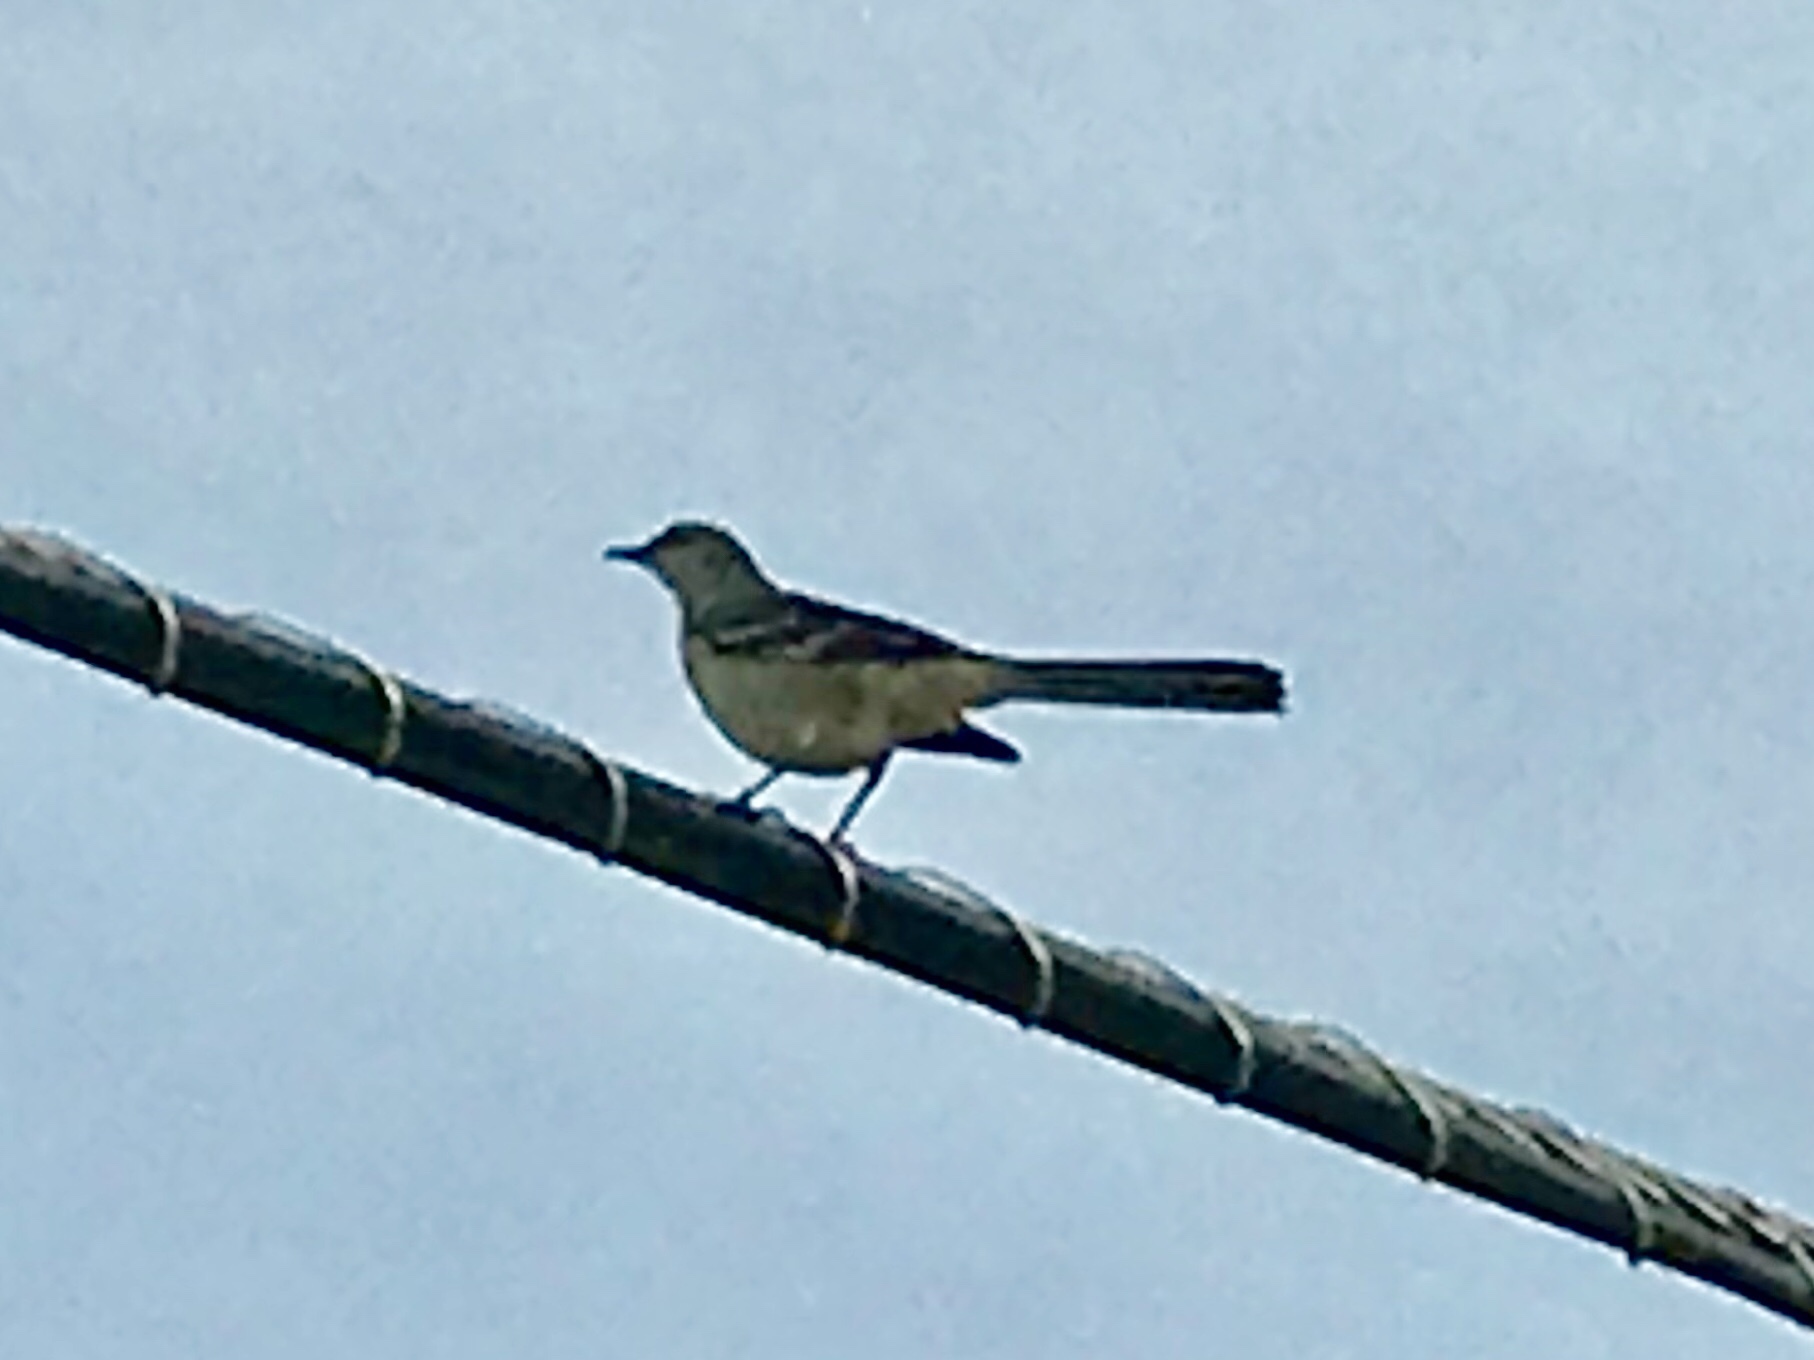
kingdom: Animalia
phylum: Chordata
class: Aves
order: Passeriformes
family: Mimidae
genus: Mimus
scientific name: Mimus polyglottos
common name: Northern mockingbird
